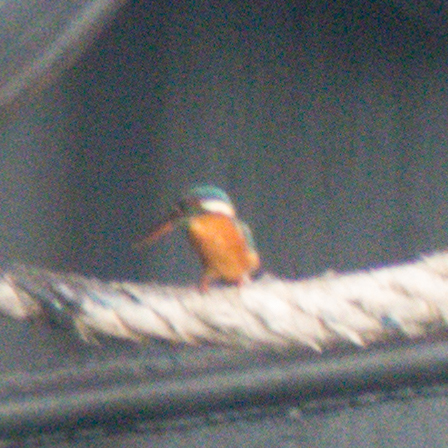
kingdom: Animalia
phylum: Chordata
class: Aves
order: Coraciiformes
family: Alcedinidae
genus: Alcedo
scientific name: Alcedo atthis
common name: Common kingfisher
